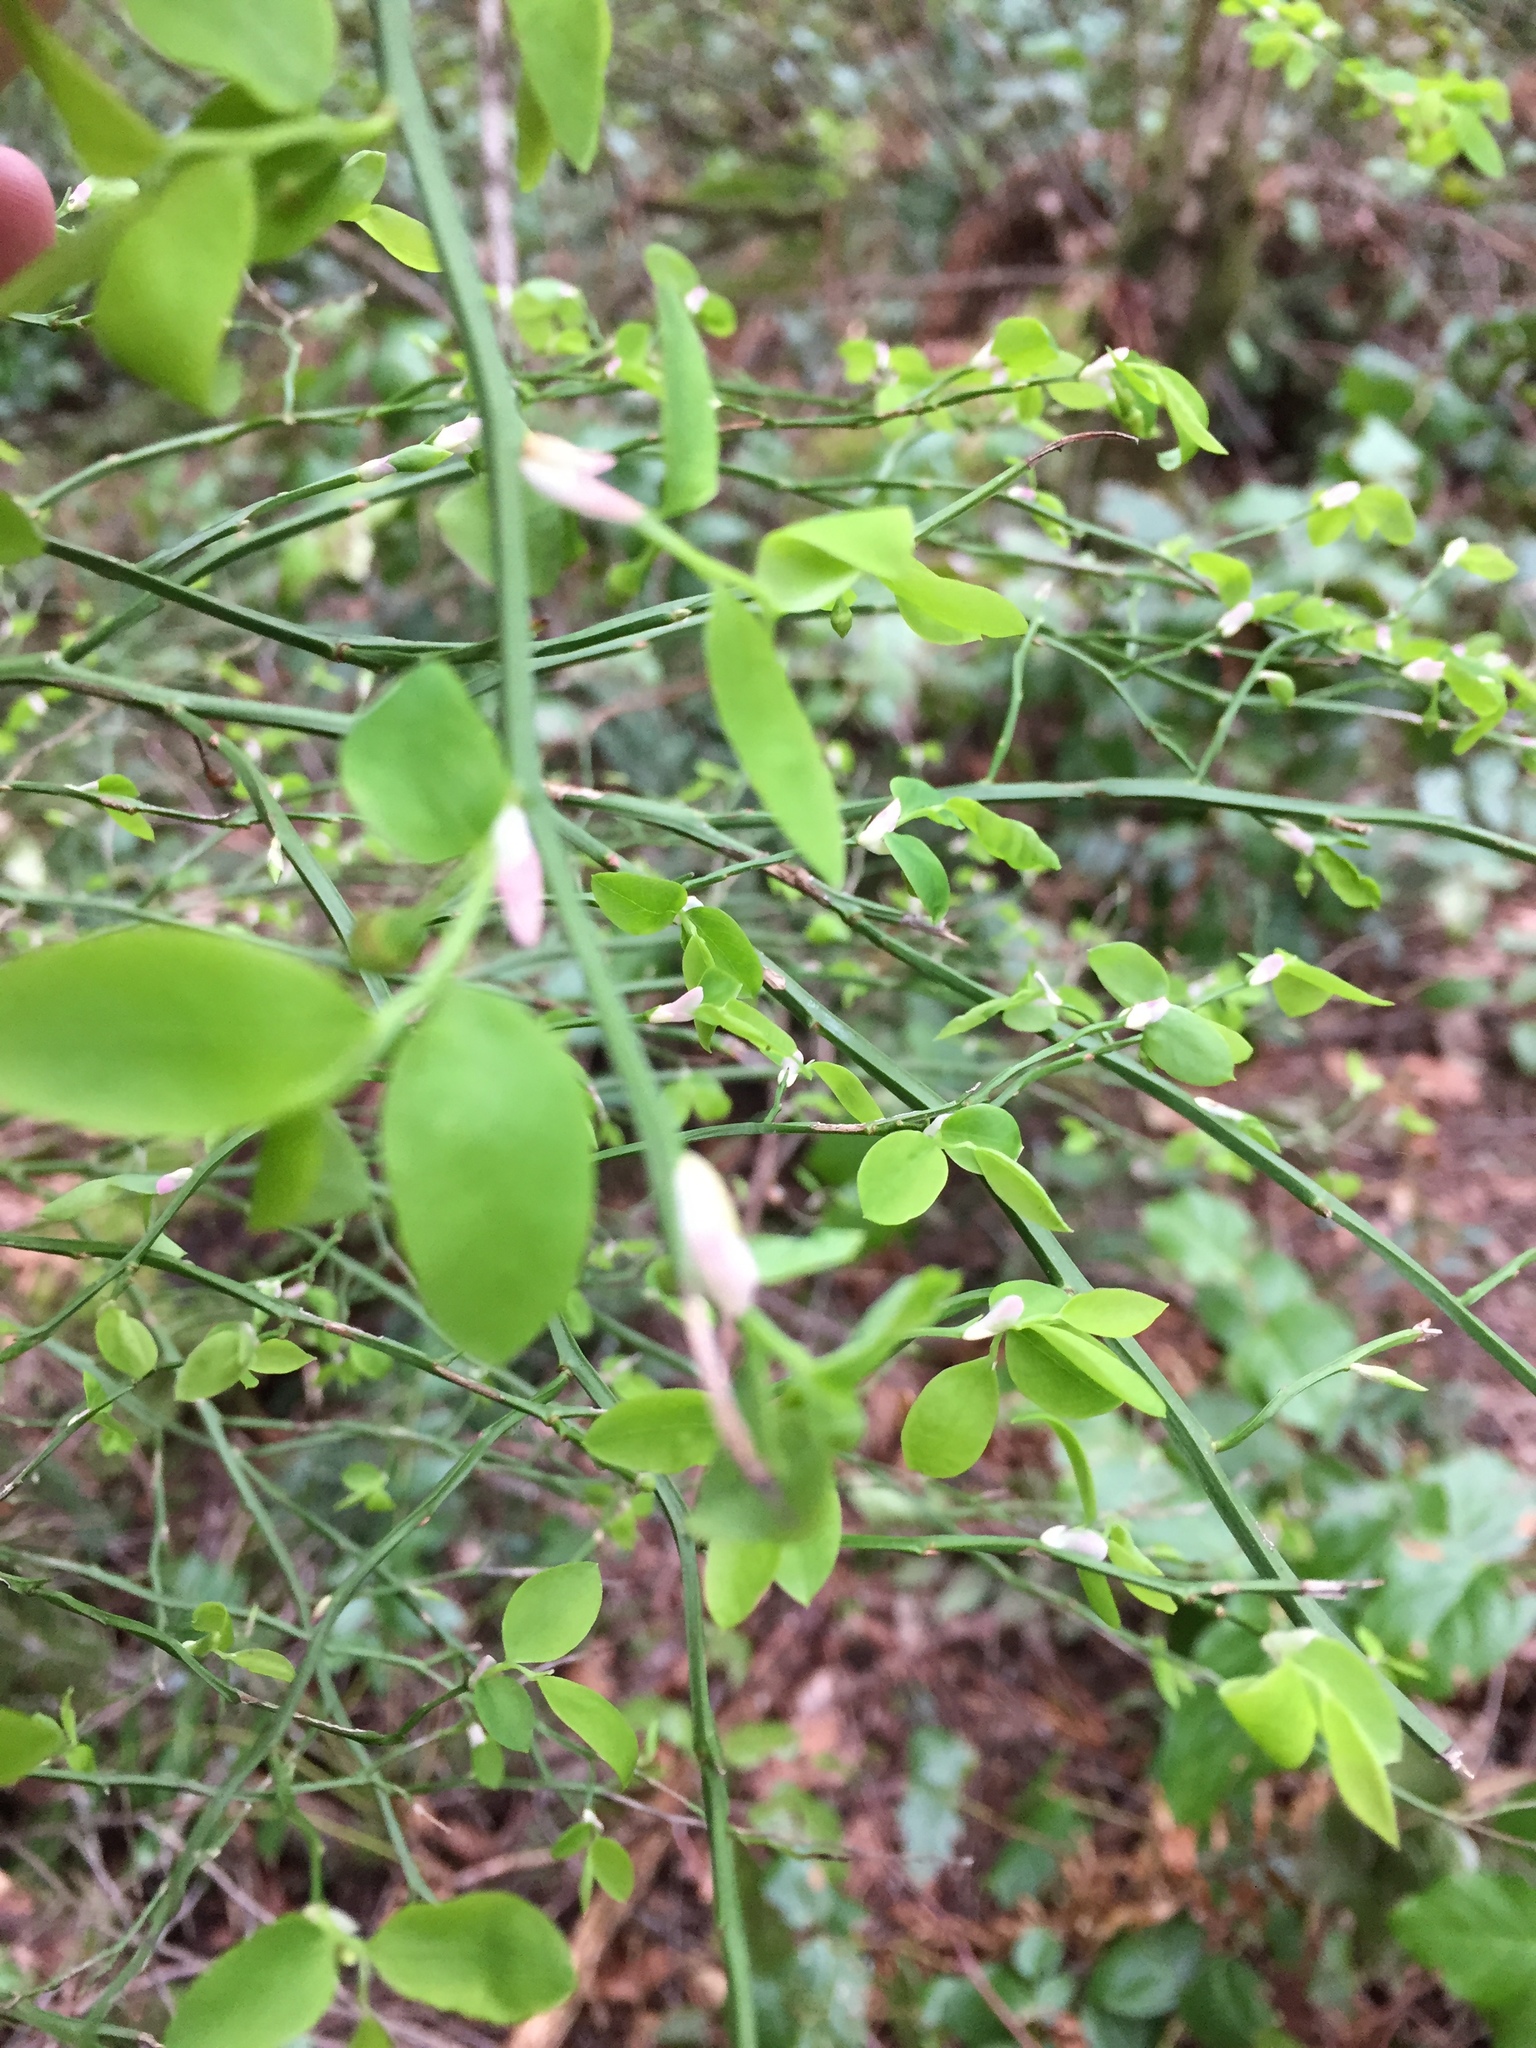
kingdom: Plantae
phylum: Tracheophyta
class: Magnoliopsida
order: Ericales
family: Ericaceae
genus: Vaccinium
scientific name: Vaccinium parvifolium
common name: Red-huckleberry
